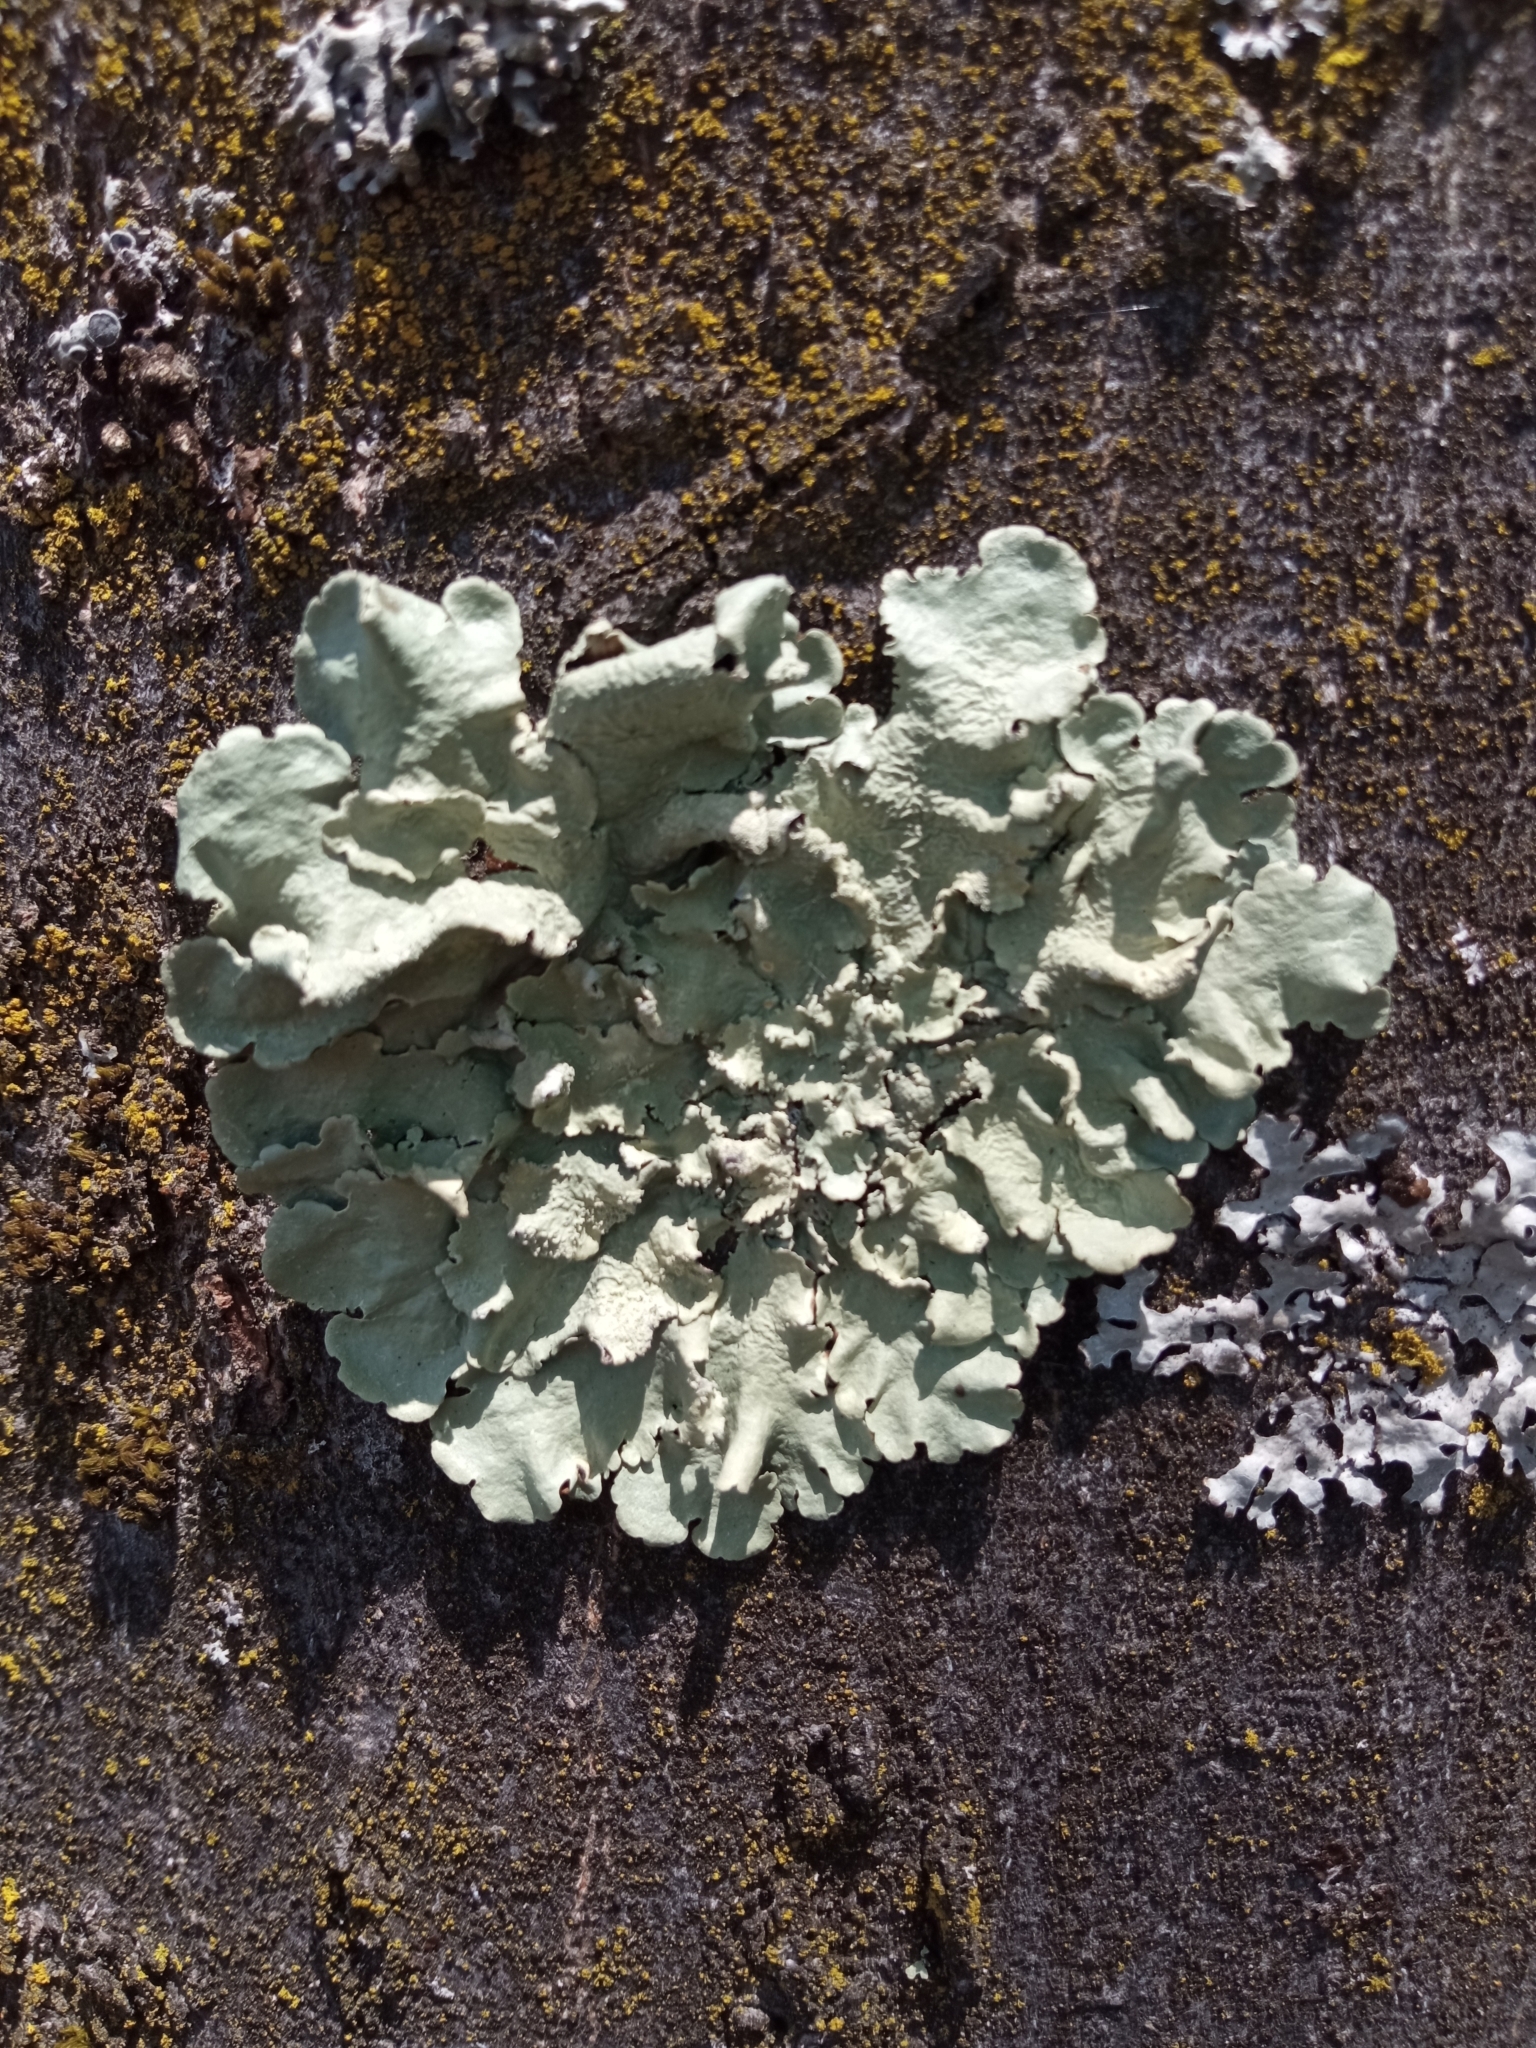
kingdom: Fungi
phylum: Ascomycota
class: Lecanoromycetes
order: Lecanorales
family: Parmeliaceae
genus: Flavoparmelia
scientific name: Flavoparmelia caperata
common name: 40-mile per hour lichen
